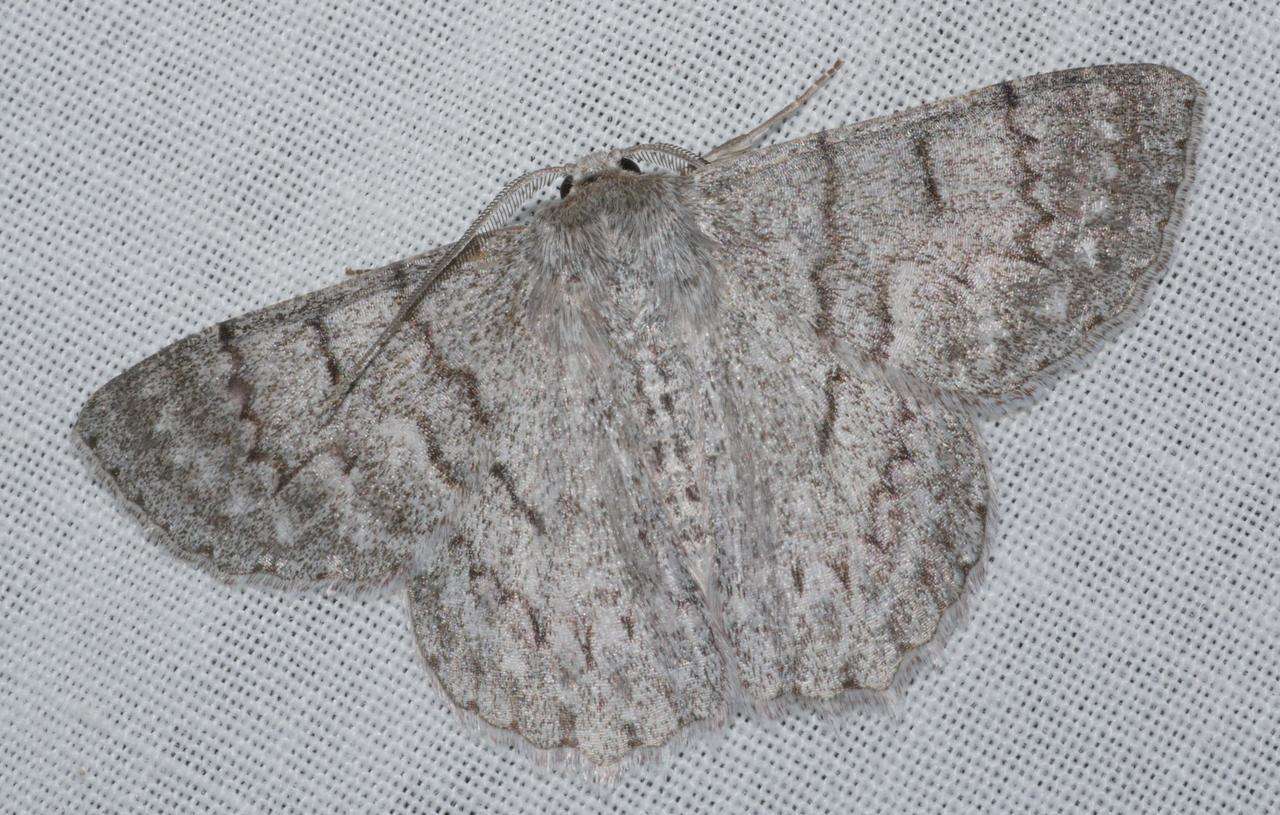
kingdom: Animalia
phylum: Arthropoda
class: Insecta
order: Lepidoptera
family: Geometridae
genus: Crypsiphona
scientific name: Crypsiphona ocultaria
